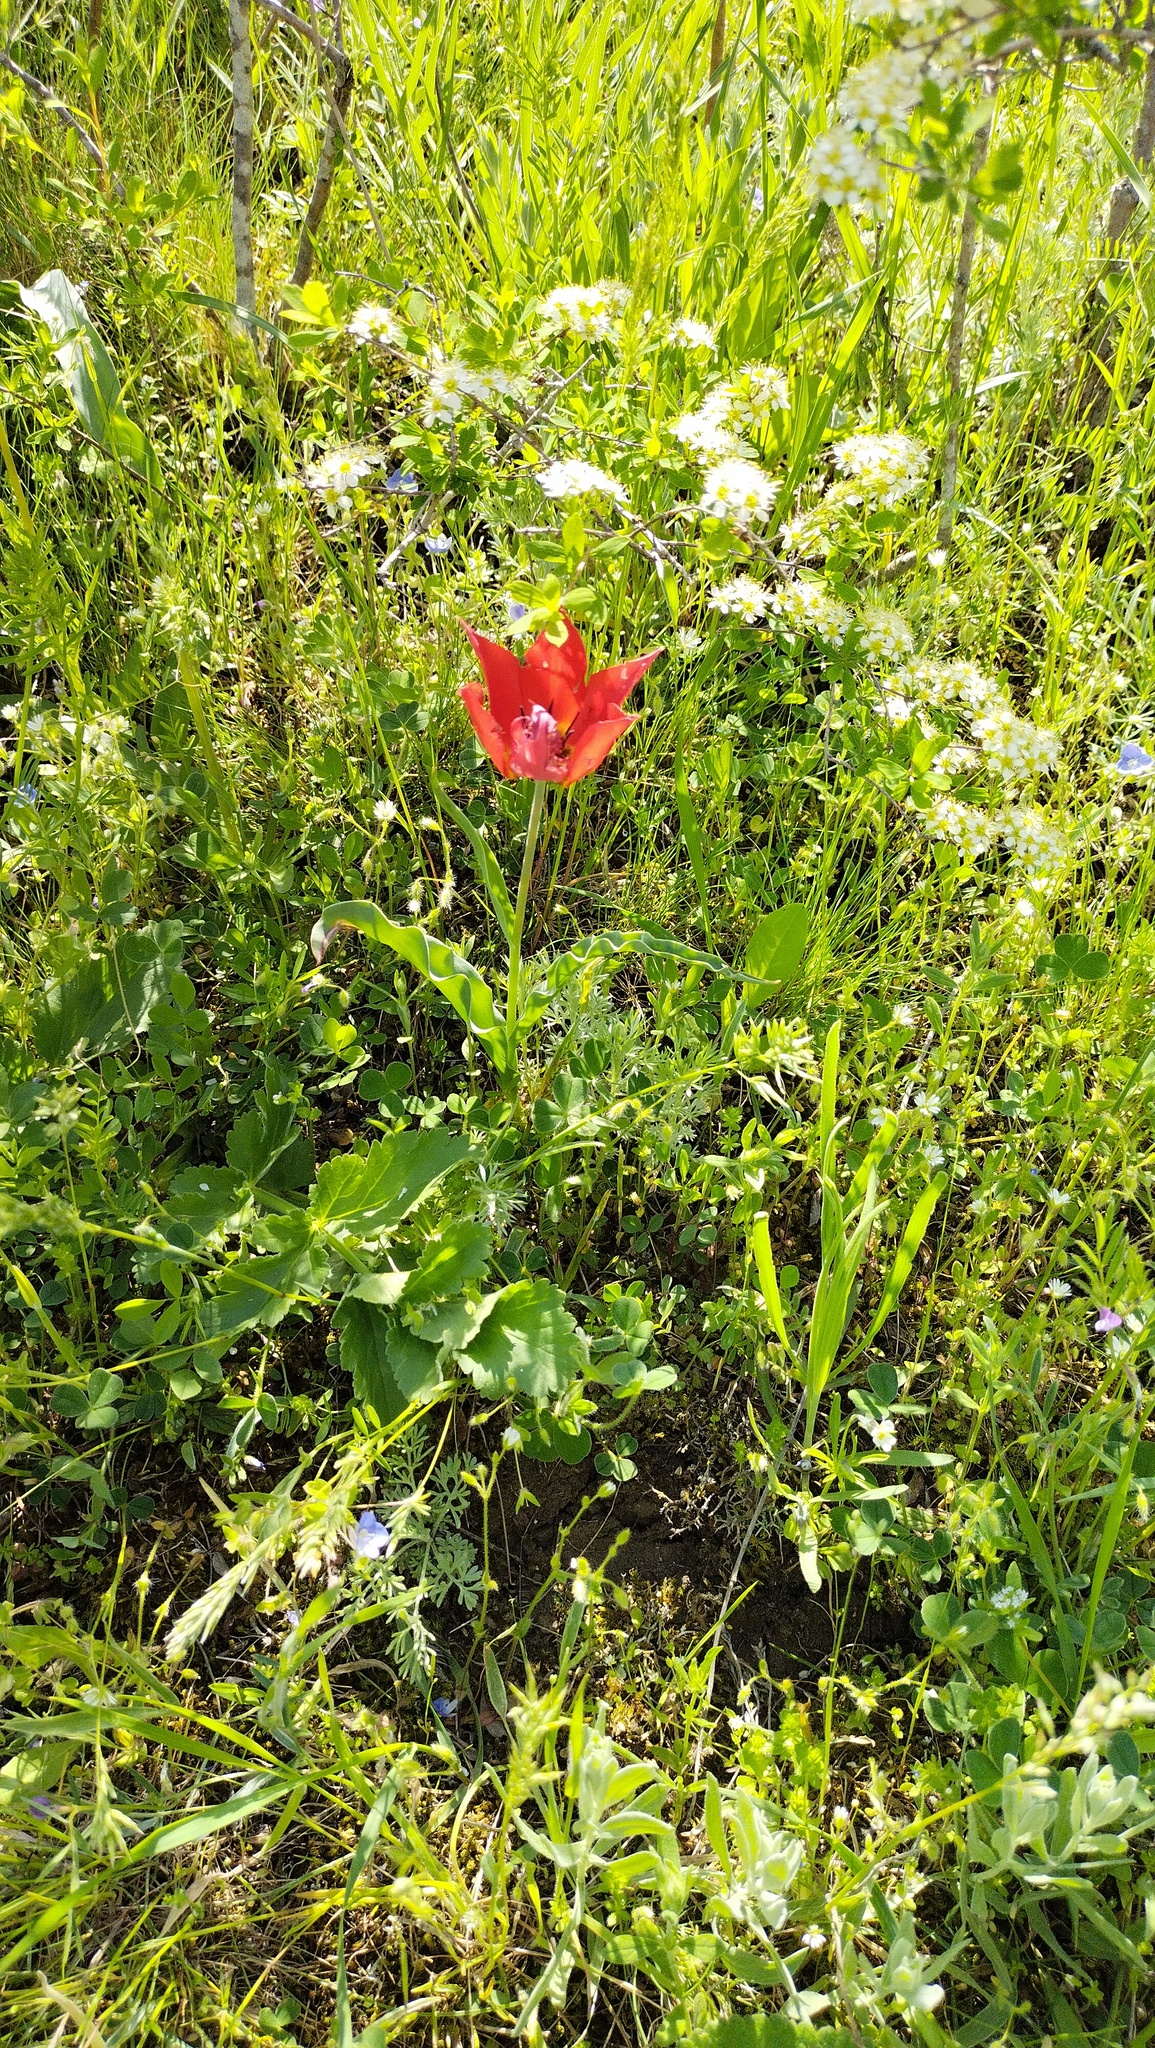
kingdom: Plantae
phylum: Tracheophyta
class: Liliopsida
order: Liliales
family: Liliaceae
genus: Tulipa
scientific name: Tulipa suaveolens
